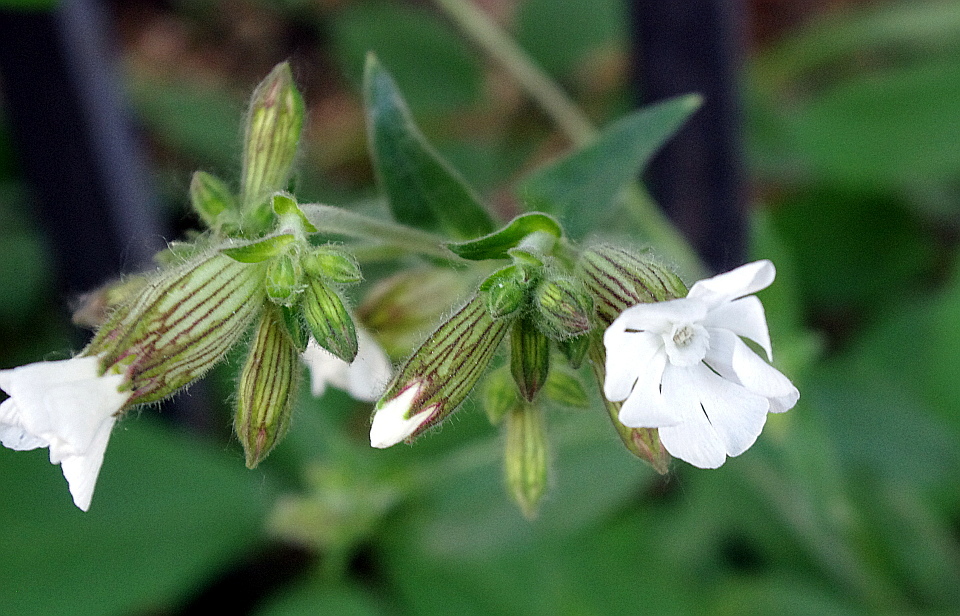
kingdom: Plantae
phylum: Tracheophyta
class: Magnoliopsida
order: Caryophyllales
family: Caryophyllaceae
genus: Silene
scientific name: Silene latifolia
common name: White campion
